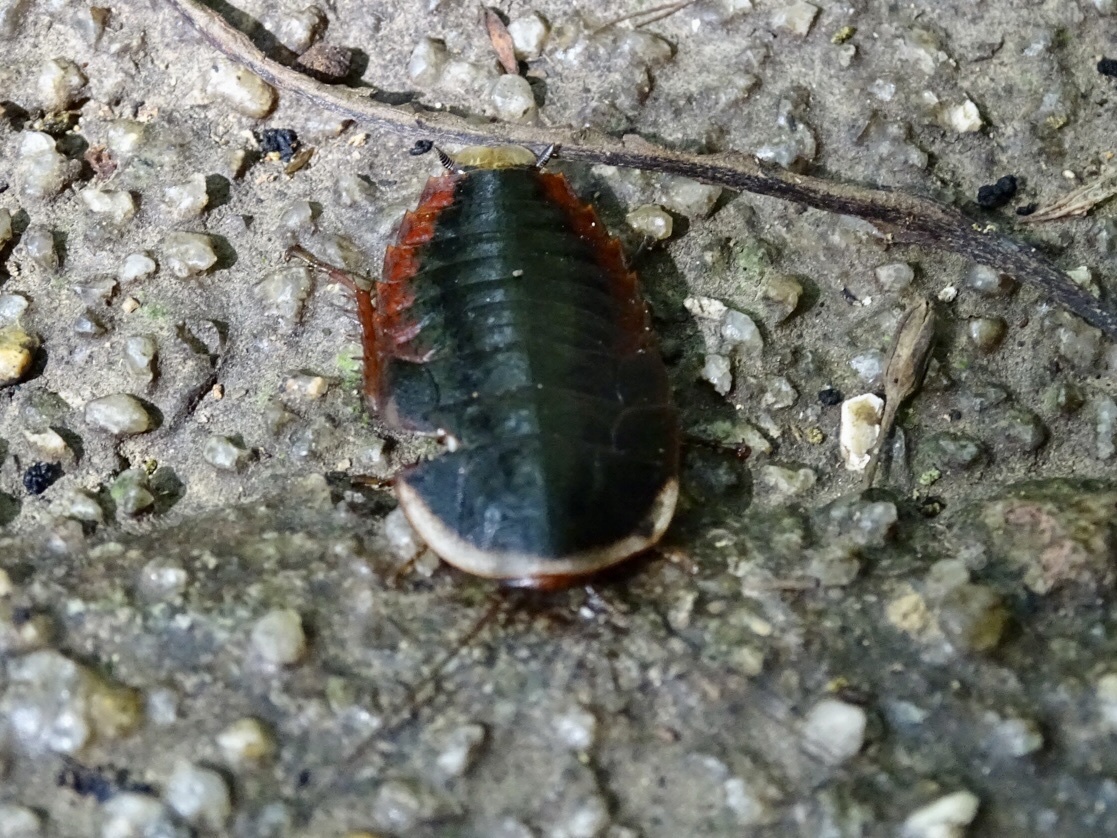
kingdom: Animalia
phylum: Arthropoda
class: Insecta
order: Blattodea
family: Blaberidae
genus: Opisthoplatia
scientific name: Opisthoplatia orientalis
